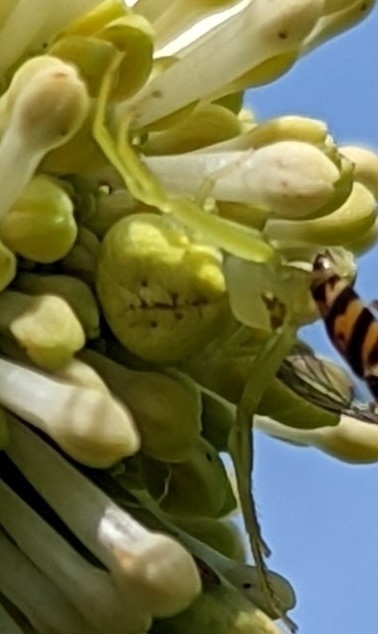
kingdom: Animalia
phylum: Arthropoda
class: Arachnida
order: Araneae
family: Thomisidae
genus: Misumessus
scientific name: Misumessus oblongus
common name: American green crab spider
